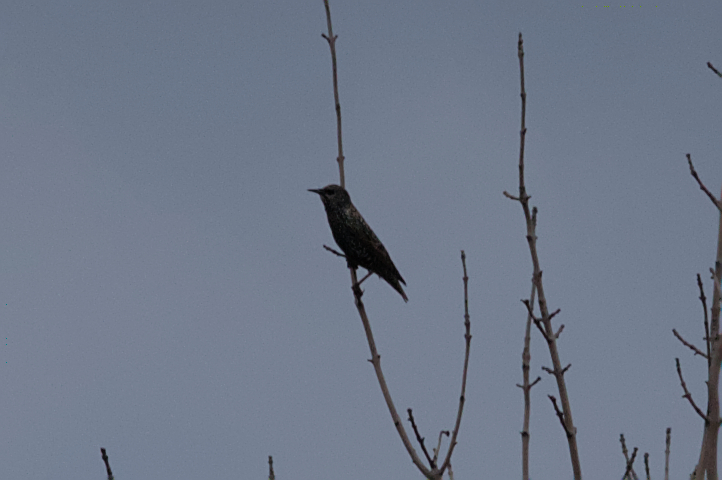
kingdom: Animalia
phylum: Chordata
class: Aves
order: Passeriformes
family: Sturnidae
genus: Sturnus
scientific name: Sturnus vulgaris
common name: Common starling
